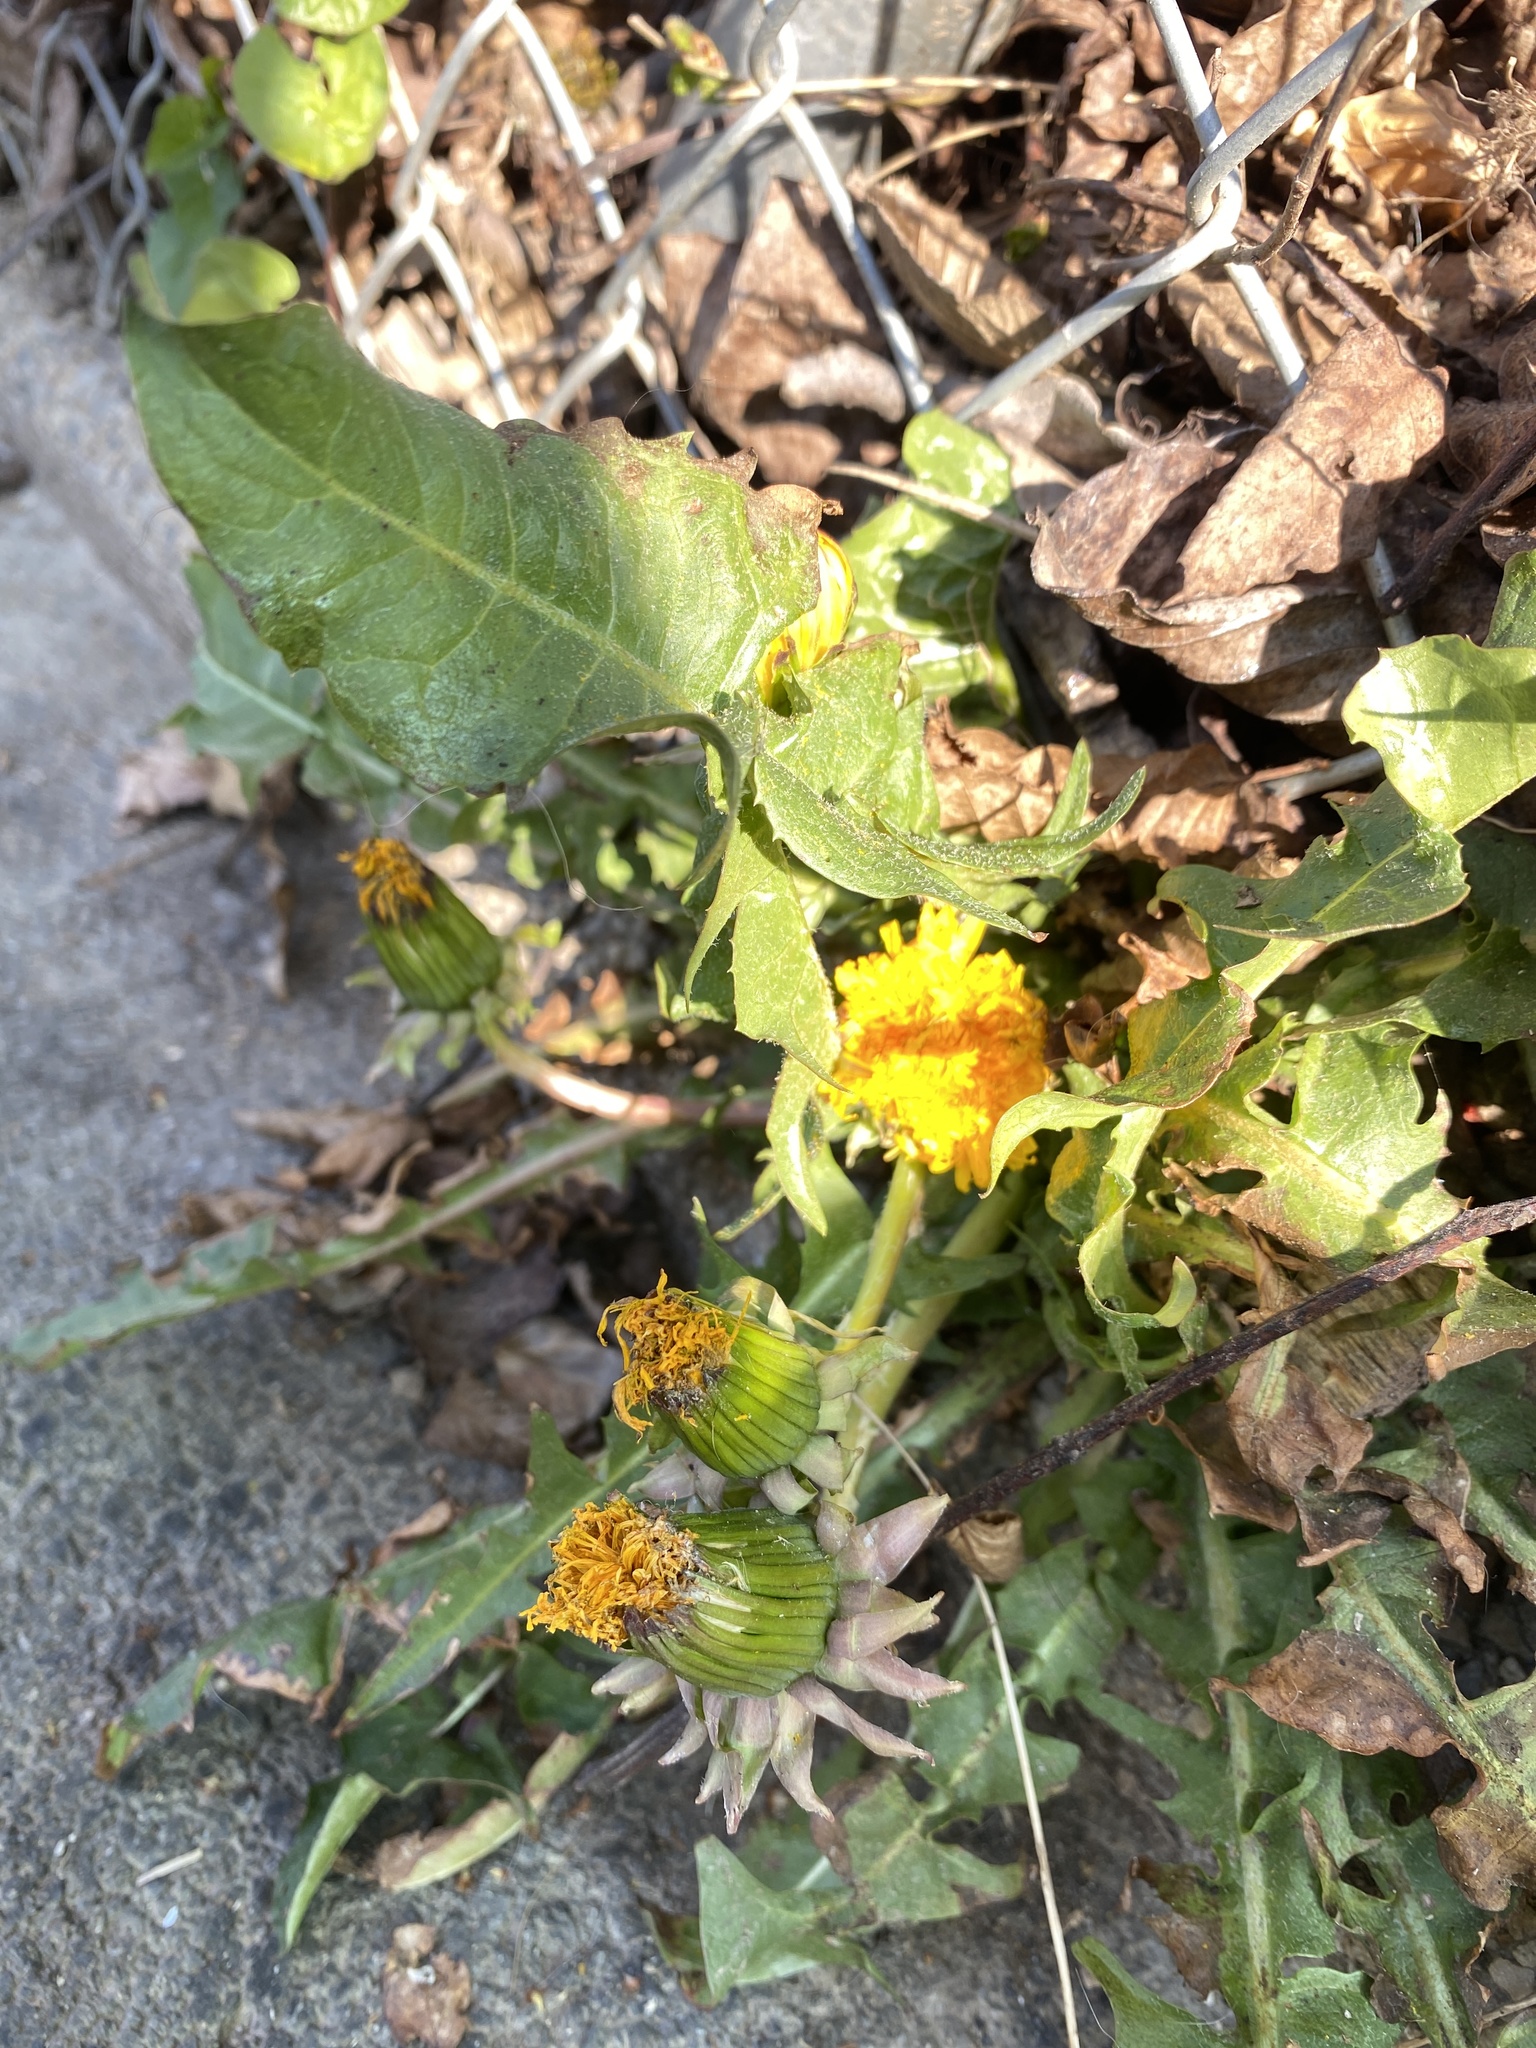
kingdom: Plantae
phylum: Tracheophyta
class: Magnoliopsida
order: Asterales
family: Asteraceae
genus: Taraxacum
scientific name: Taraxacum officinale
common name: Common dandelion
